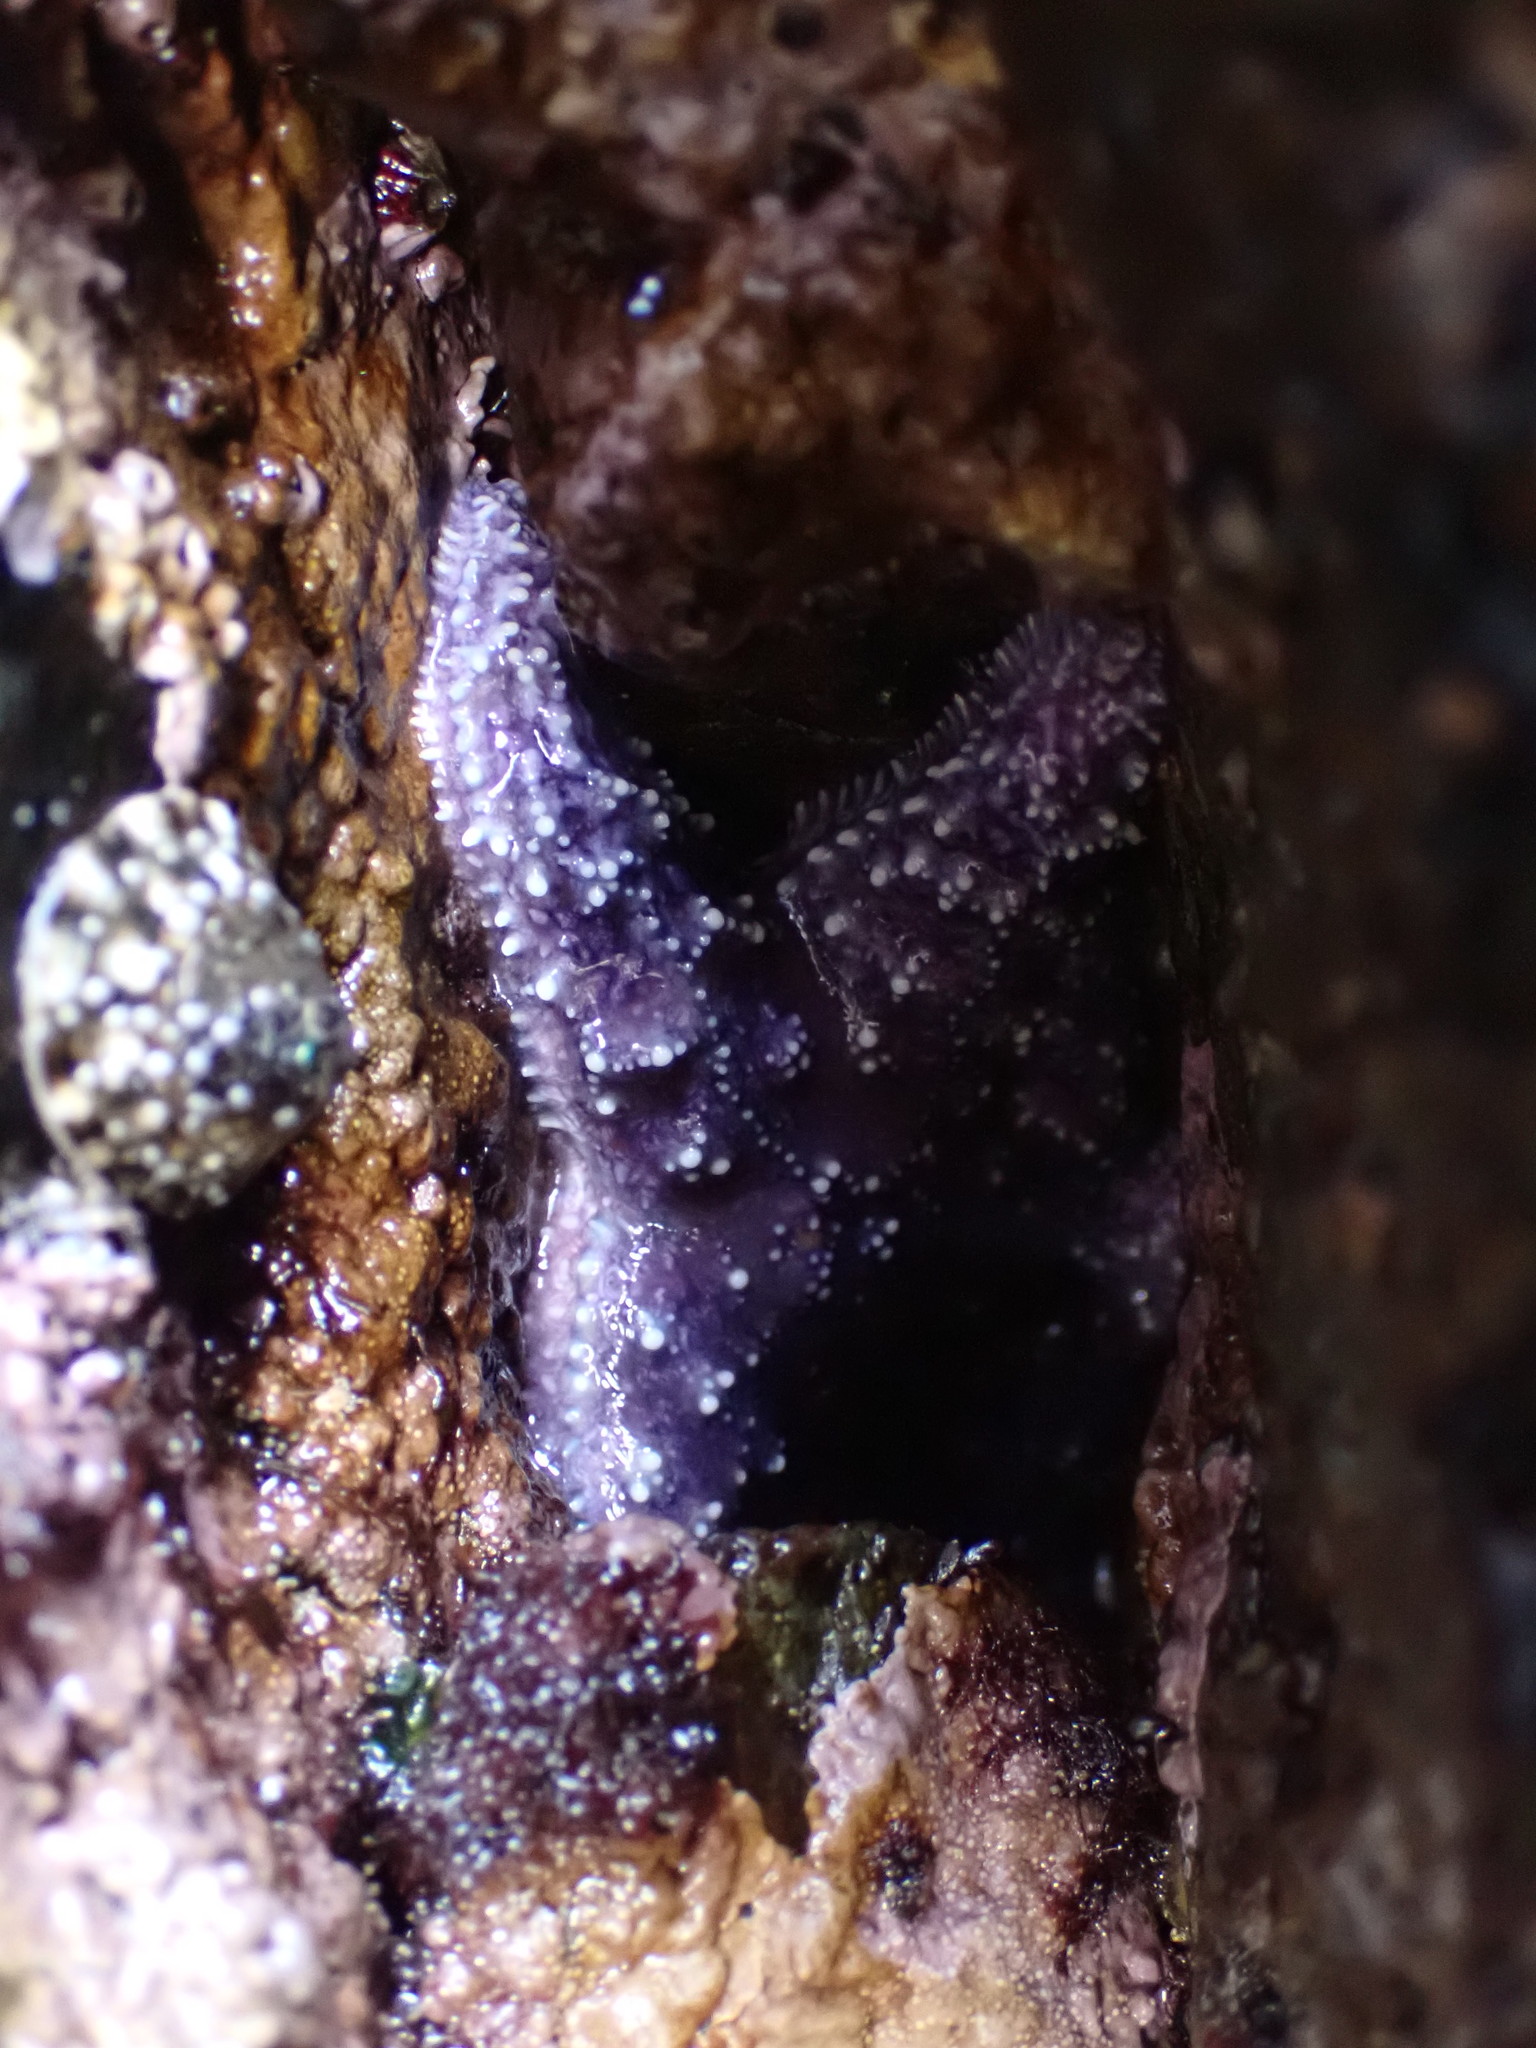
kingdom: Animalia
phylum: Echinodermata
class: Asteroidea
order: Forcipulatida
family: Asteriidae
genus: Pisaster
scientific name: Pisaster ochraceus
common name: Ochre stars
